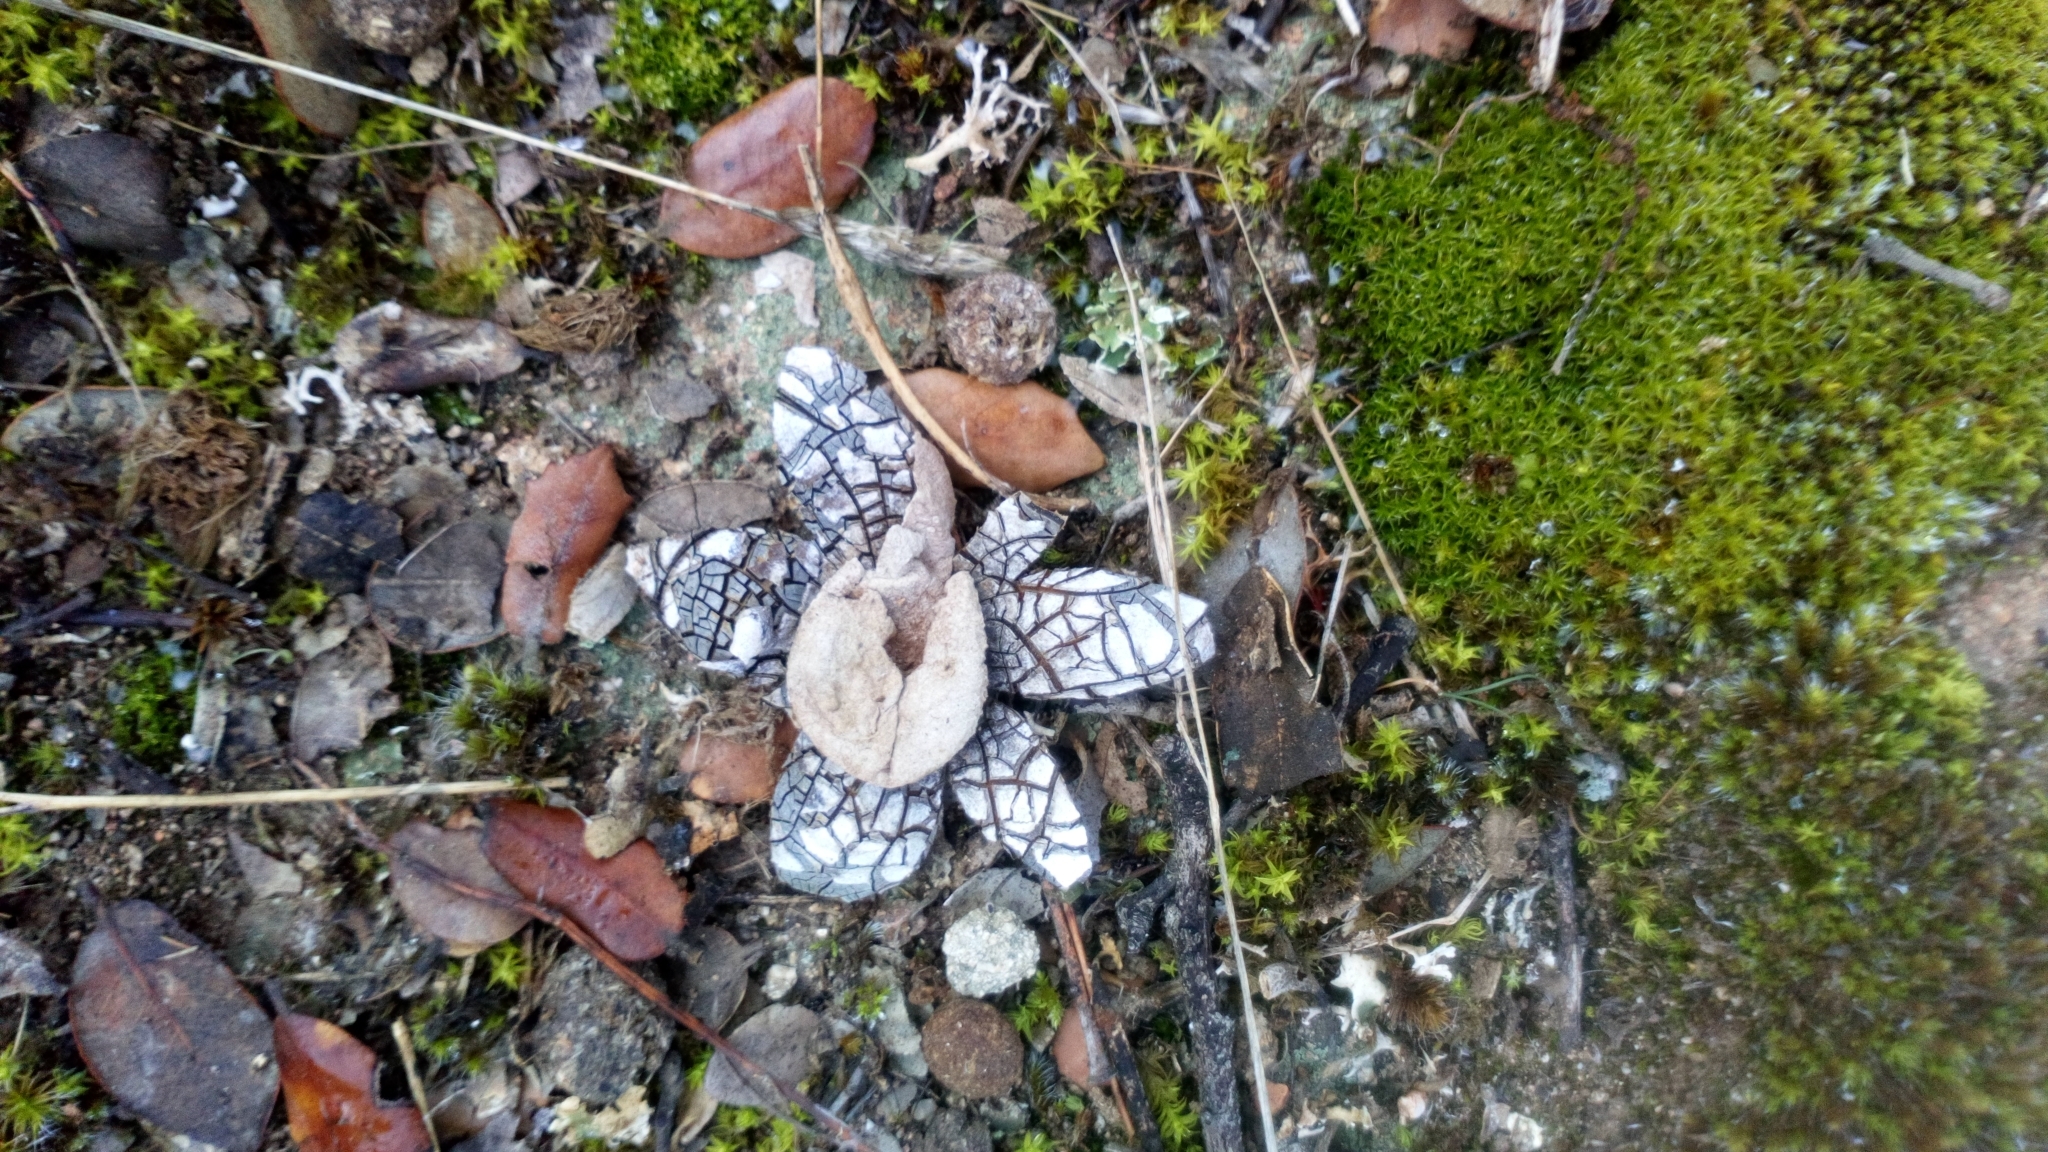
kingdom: Fungi
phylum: Basidiomycota
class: Agaricomycetes
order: Boletales
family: Diplocystidiaceae
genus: Astraeus
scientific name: Astraeus hygrometricus
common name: Barometer earthstar
